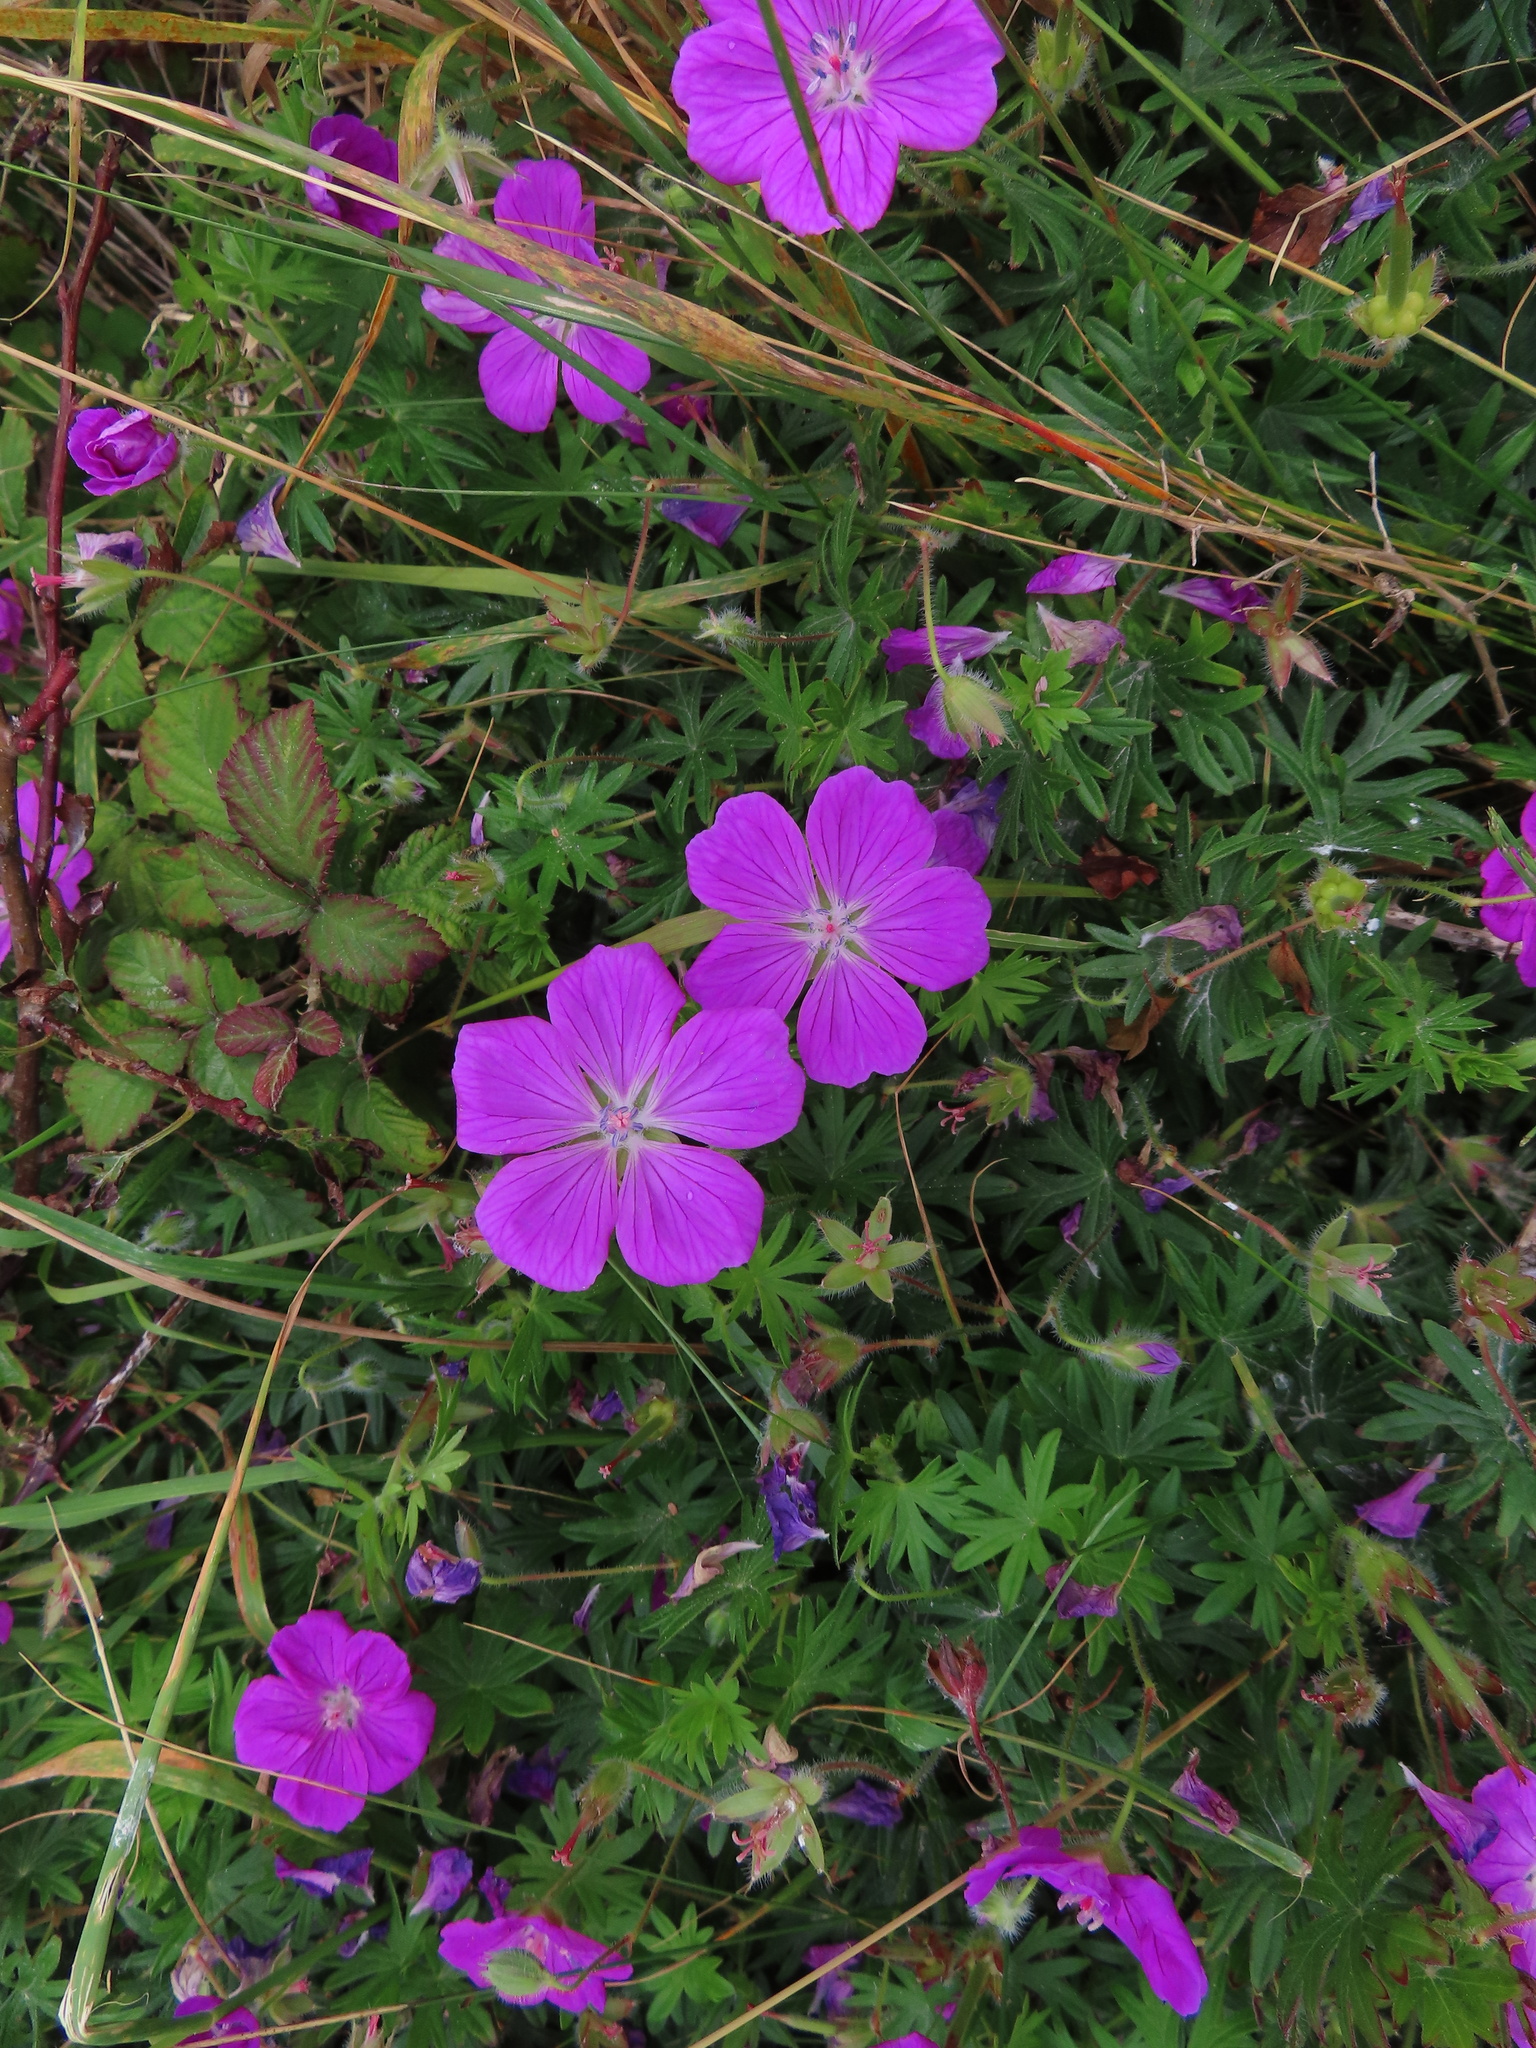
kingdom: Plantae
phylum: Tracheophyta
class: Magnoliopsida
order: Geraniales
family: Geraniaceae
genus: Geranium
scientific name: Geranium sanguineum
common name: Bloody crane's-bill
